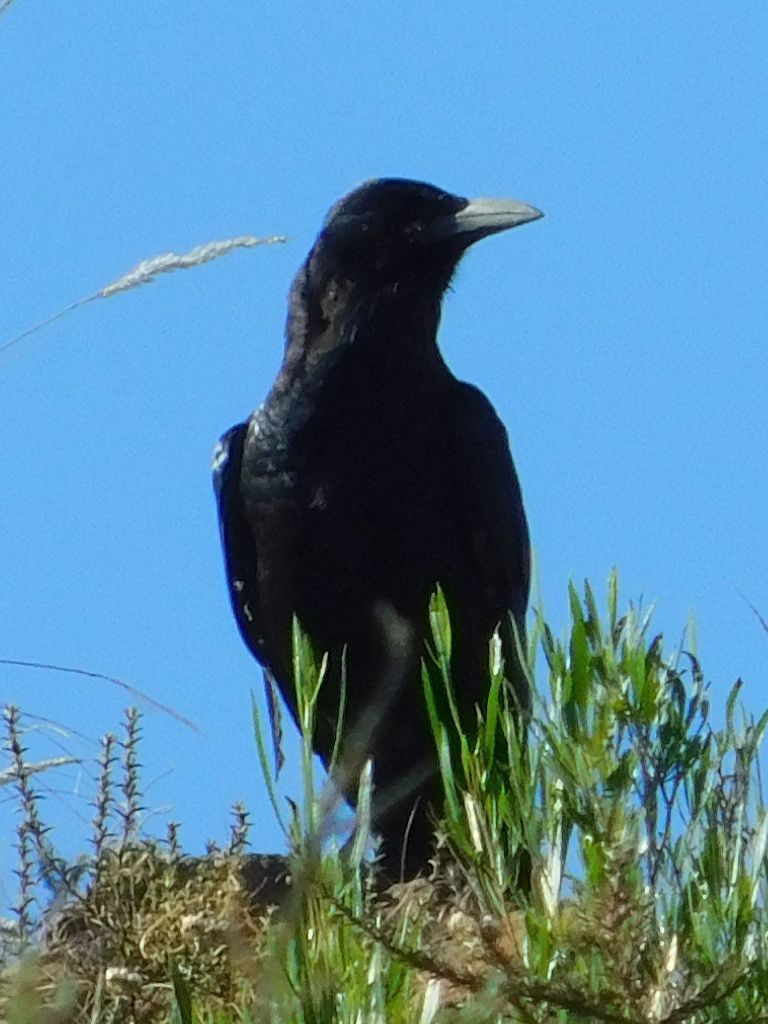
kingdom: Animalia
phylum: Chordata
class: Aves
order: Passeriformes
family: Corvidae
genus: Corvus
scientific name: Corvus capensis
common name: Cape crow
